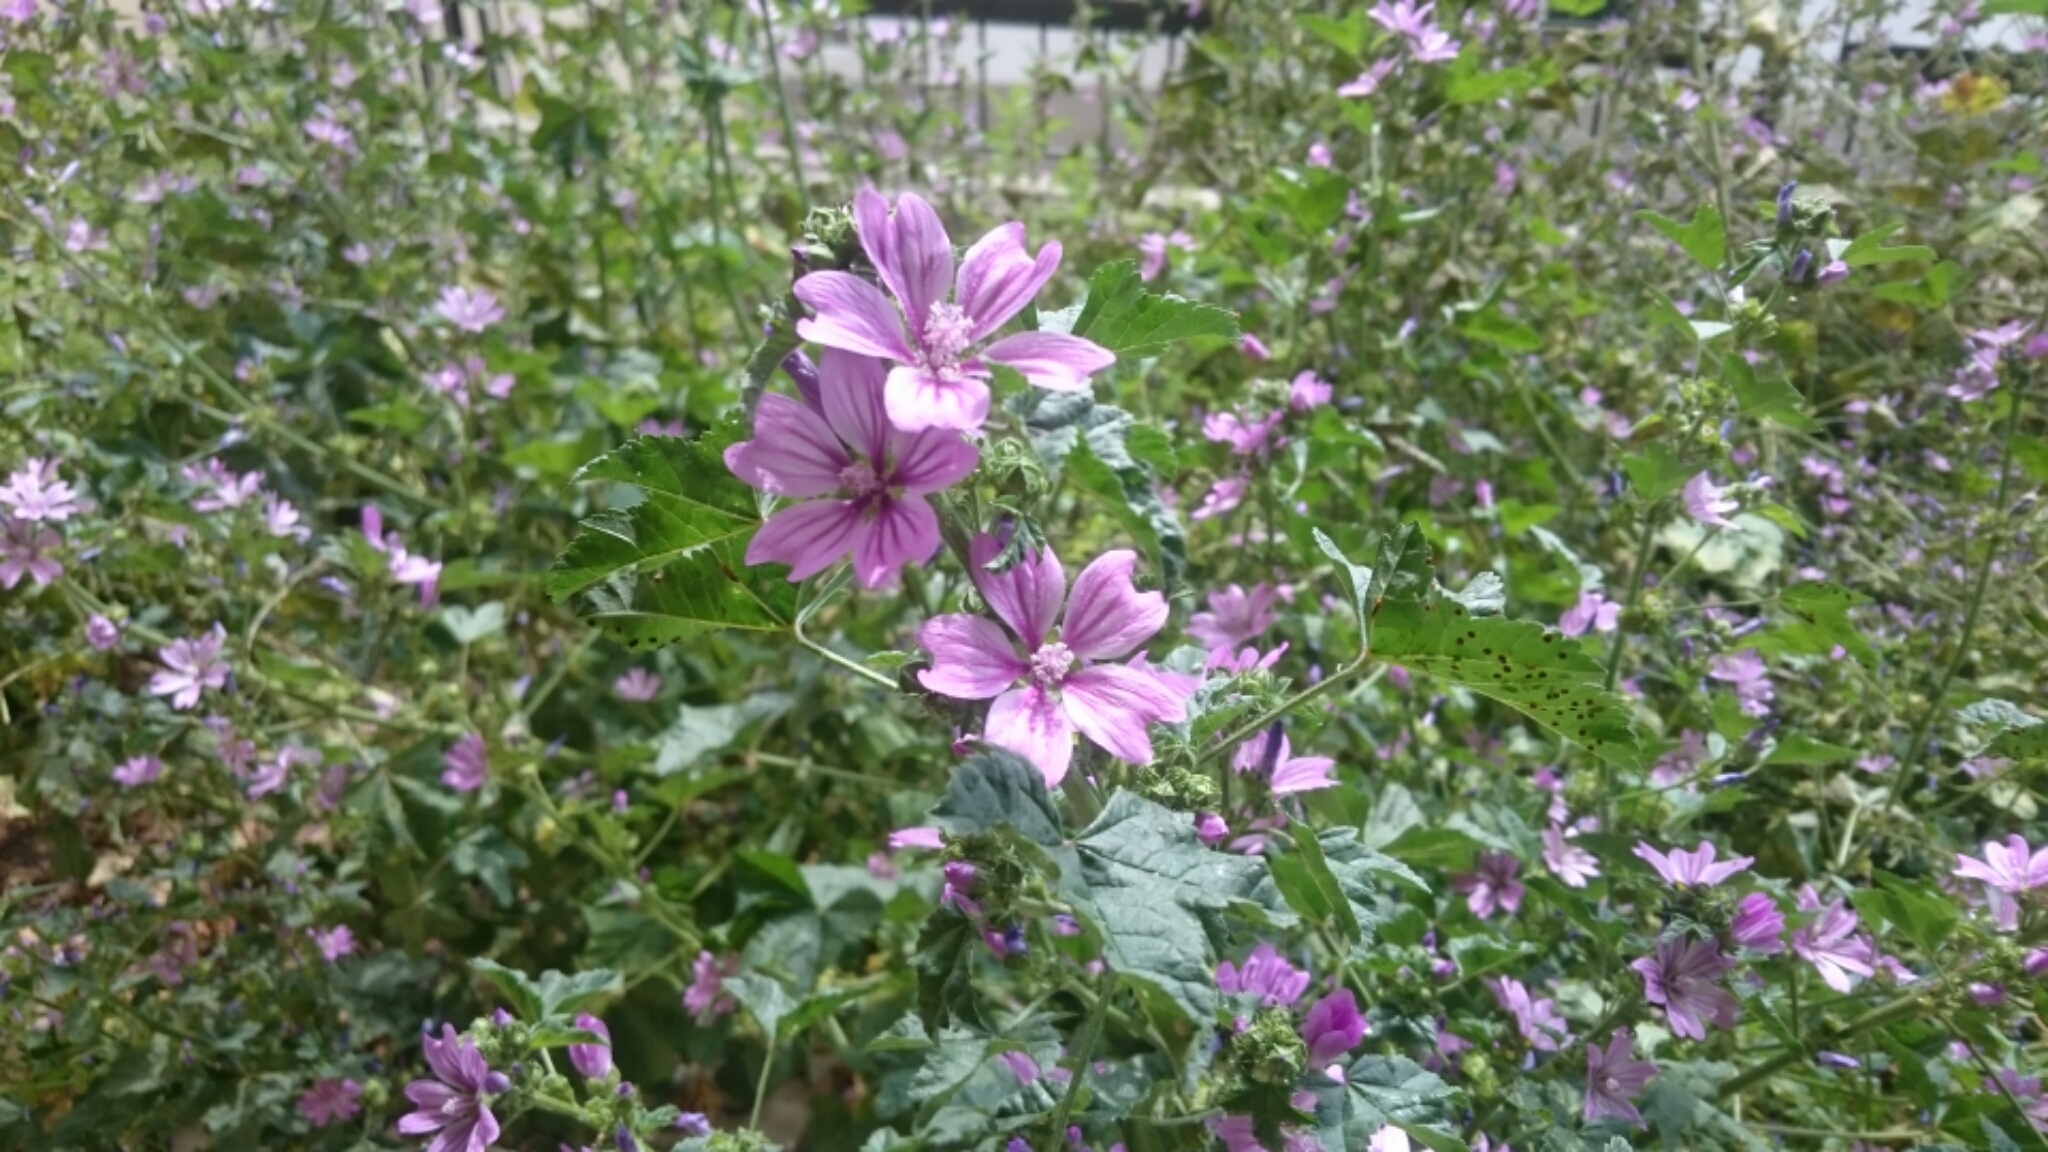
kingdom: Plantae
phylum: Tracheophyta
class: Magnoliopsida
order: Malvales
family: Malvaceae
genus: Malva
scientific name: Malva sylvestris
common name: Common mallow
